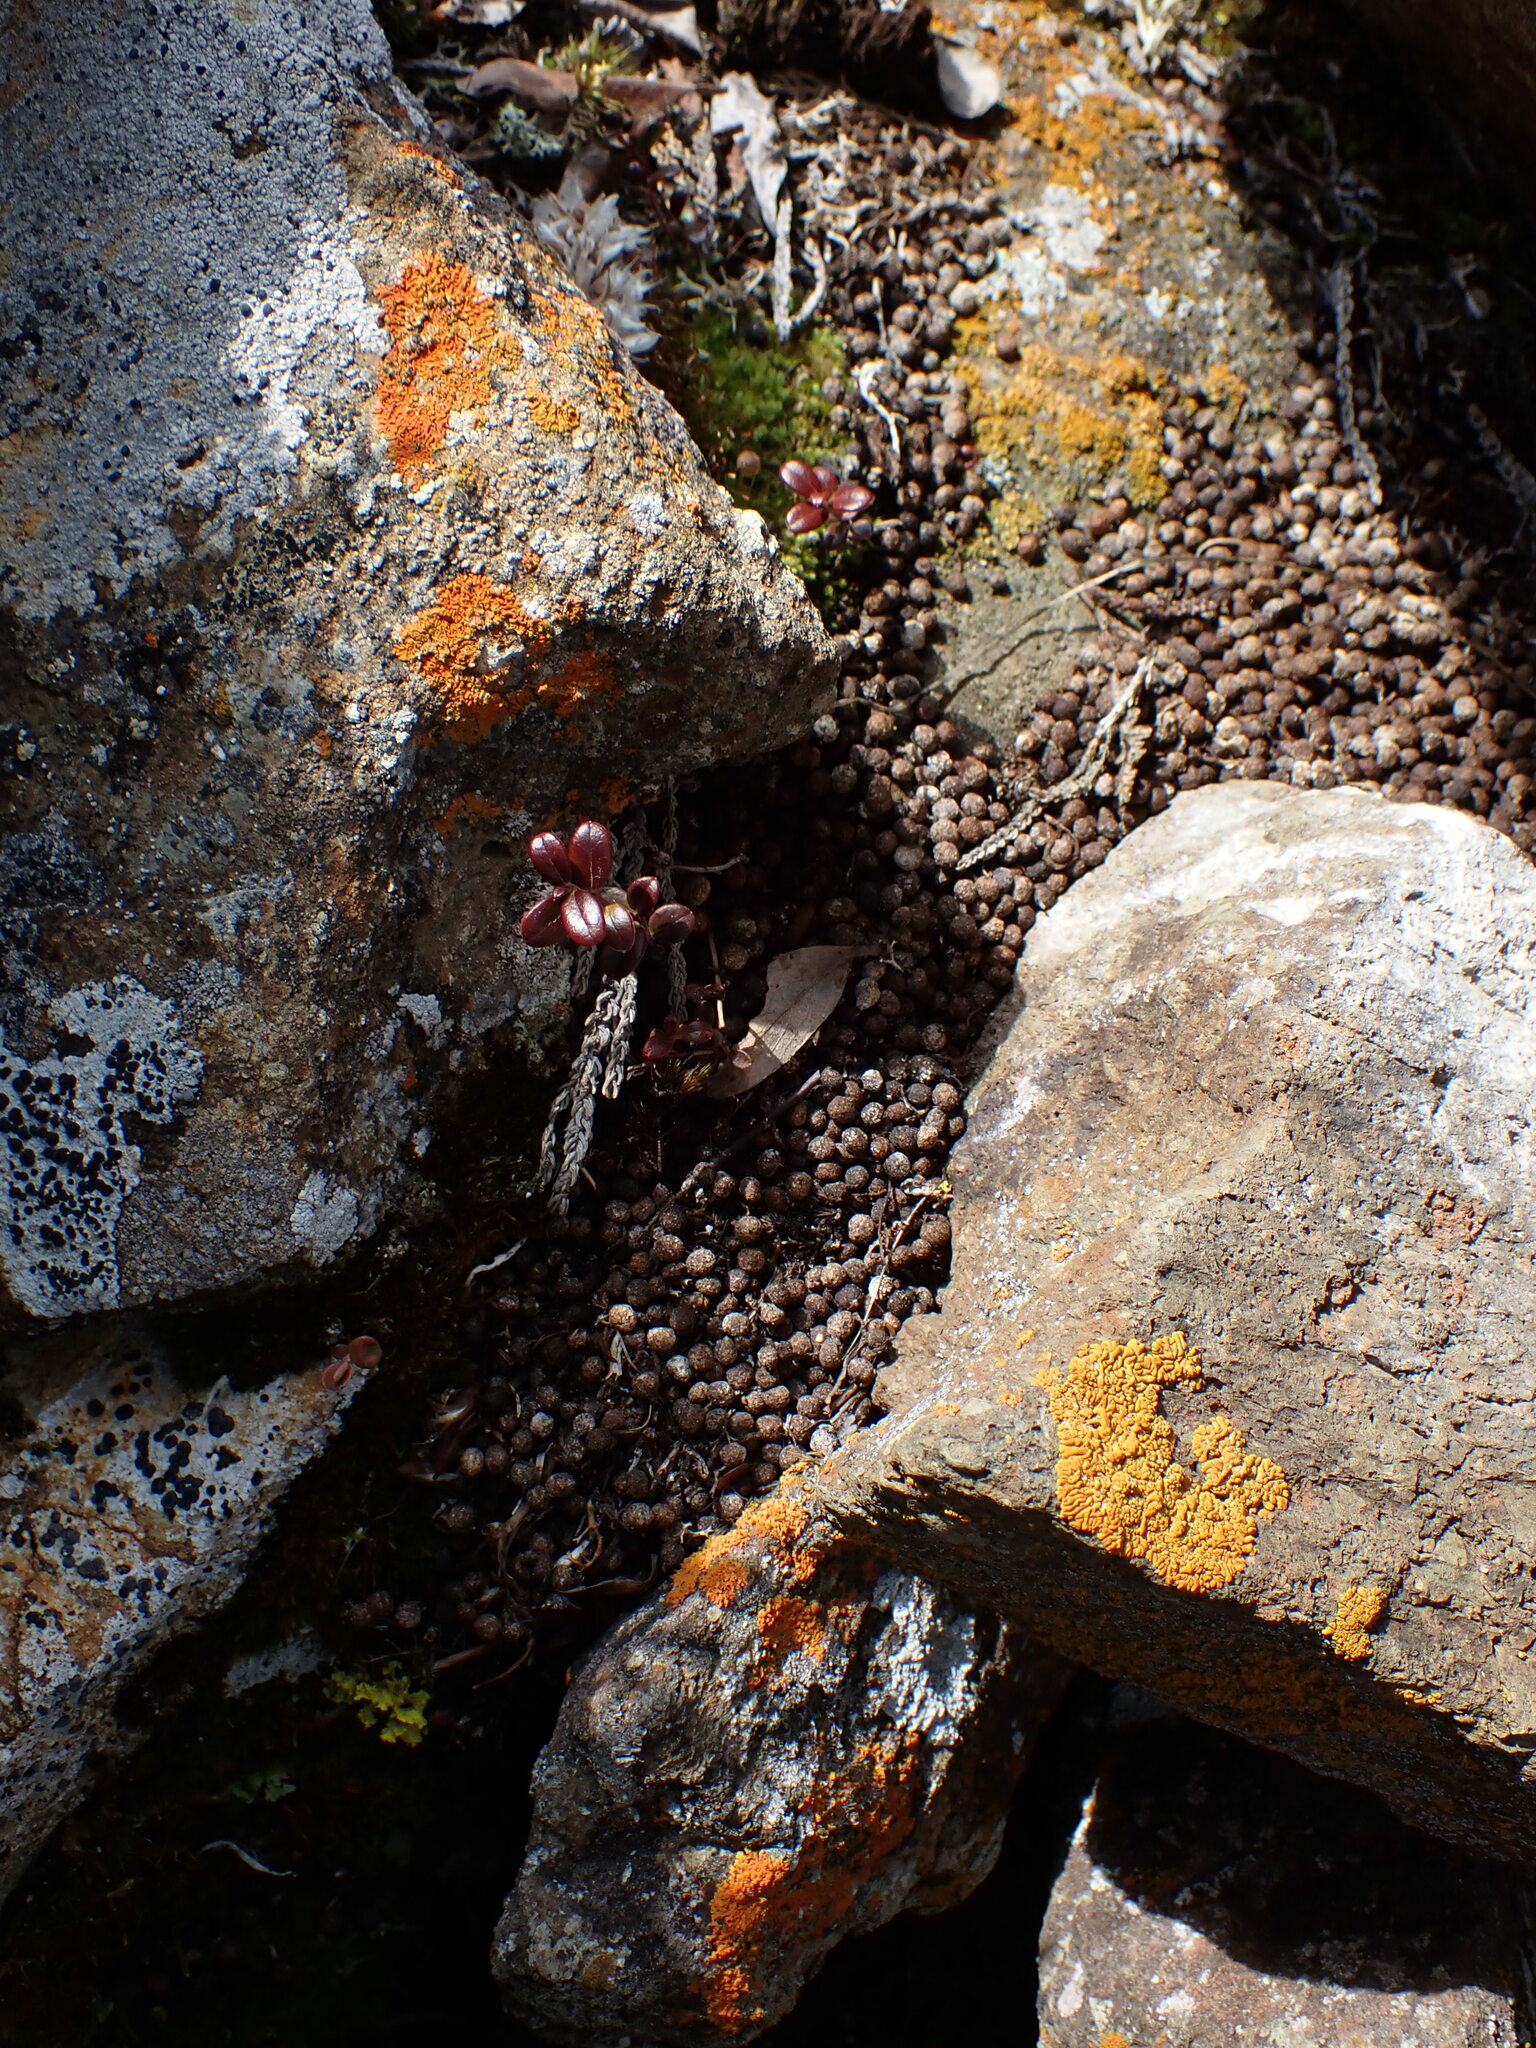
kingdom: Animalia
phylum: Chordata
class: Mammalia
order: Lagomorpha
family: Ochotonidae
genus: Ochotona
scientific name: Ochotona collaris
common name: Collared pika
